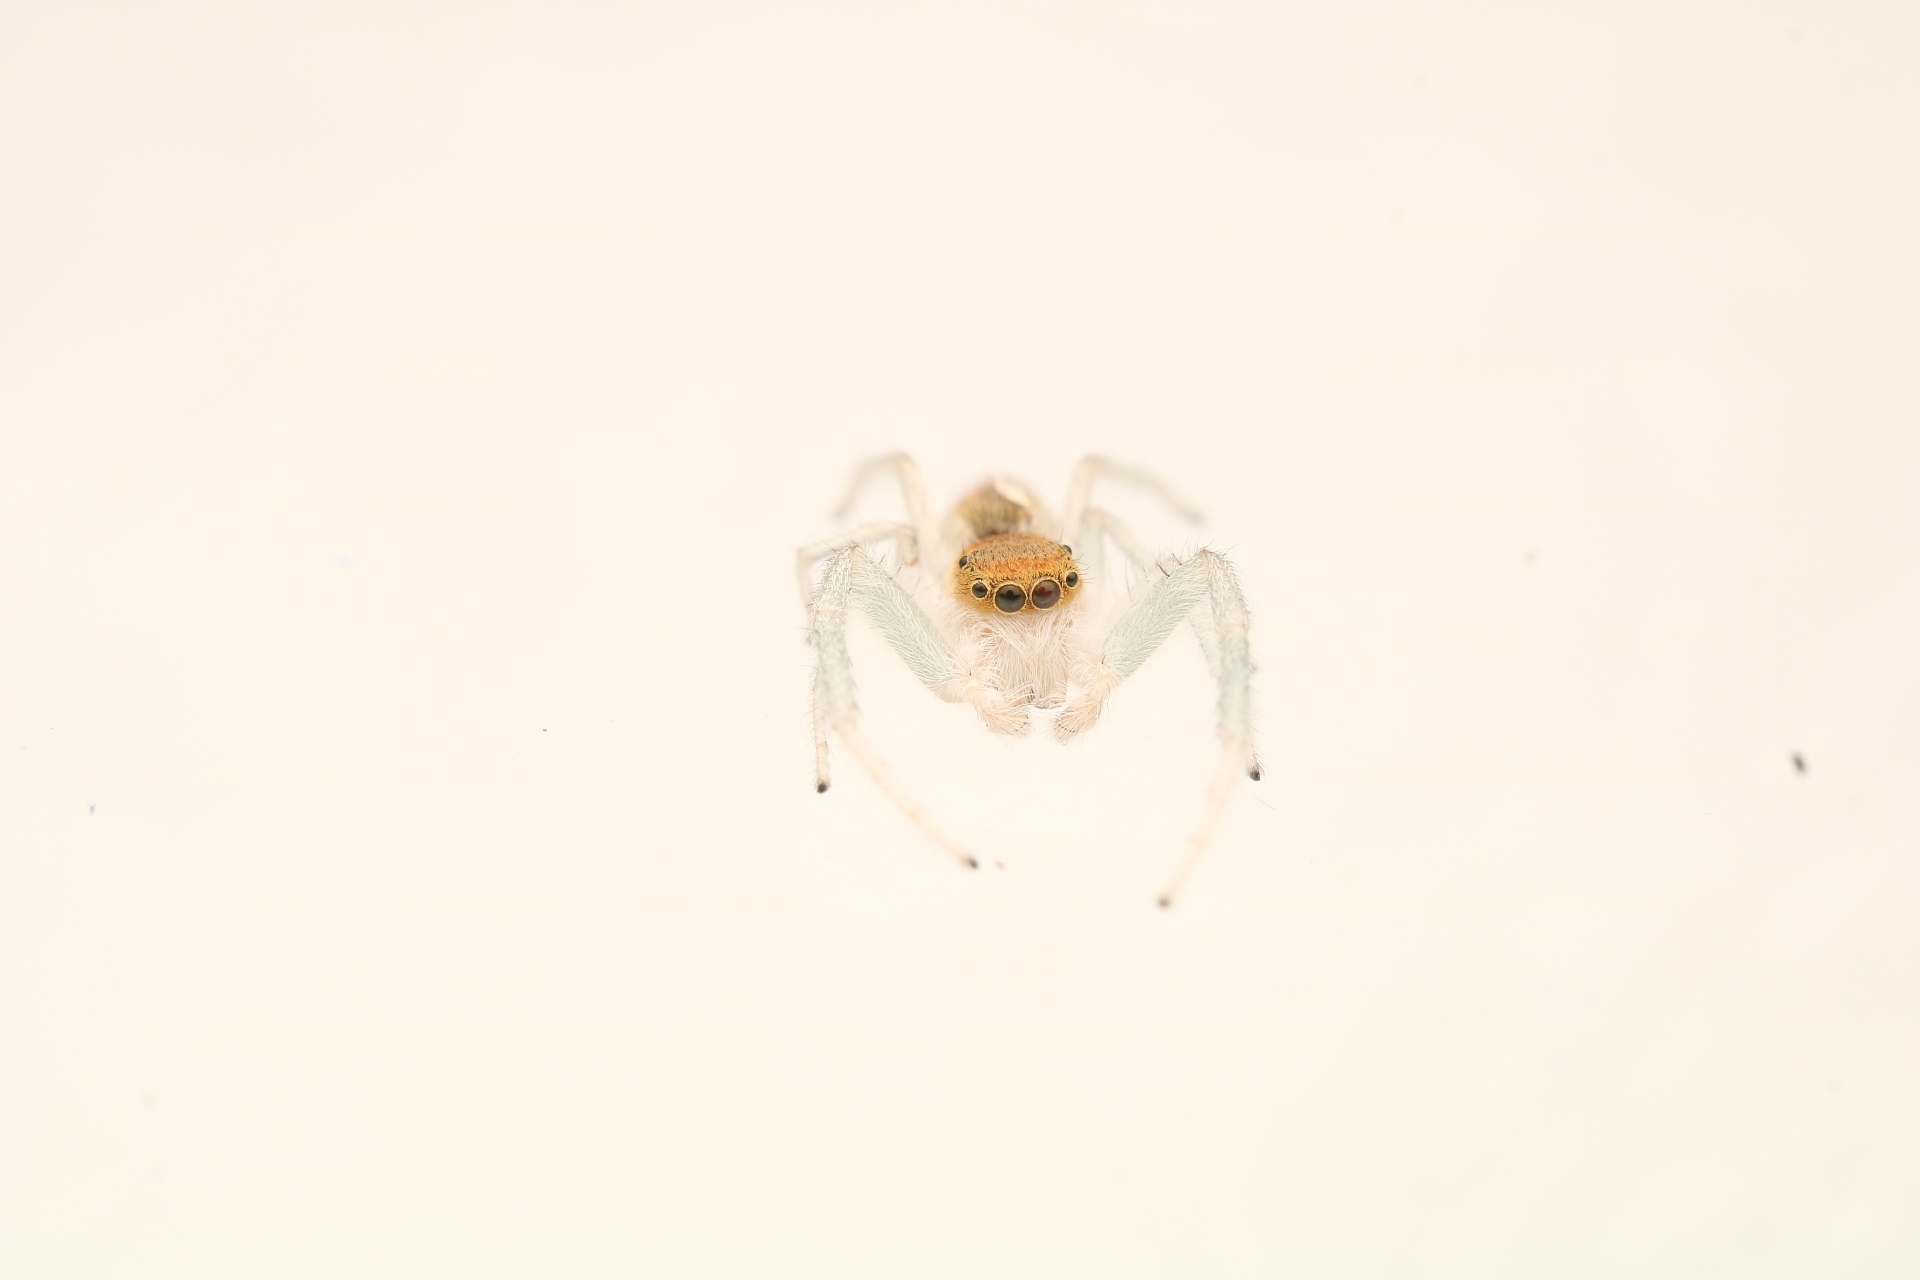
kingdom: Animalia
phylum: Arthropoda
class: Arachnida
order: Araneae
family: Salticidae
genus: Hentzia
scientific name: Hentzia mitrata
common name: White-jawed jumping spider
